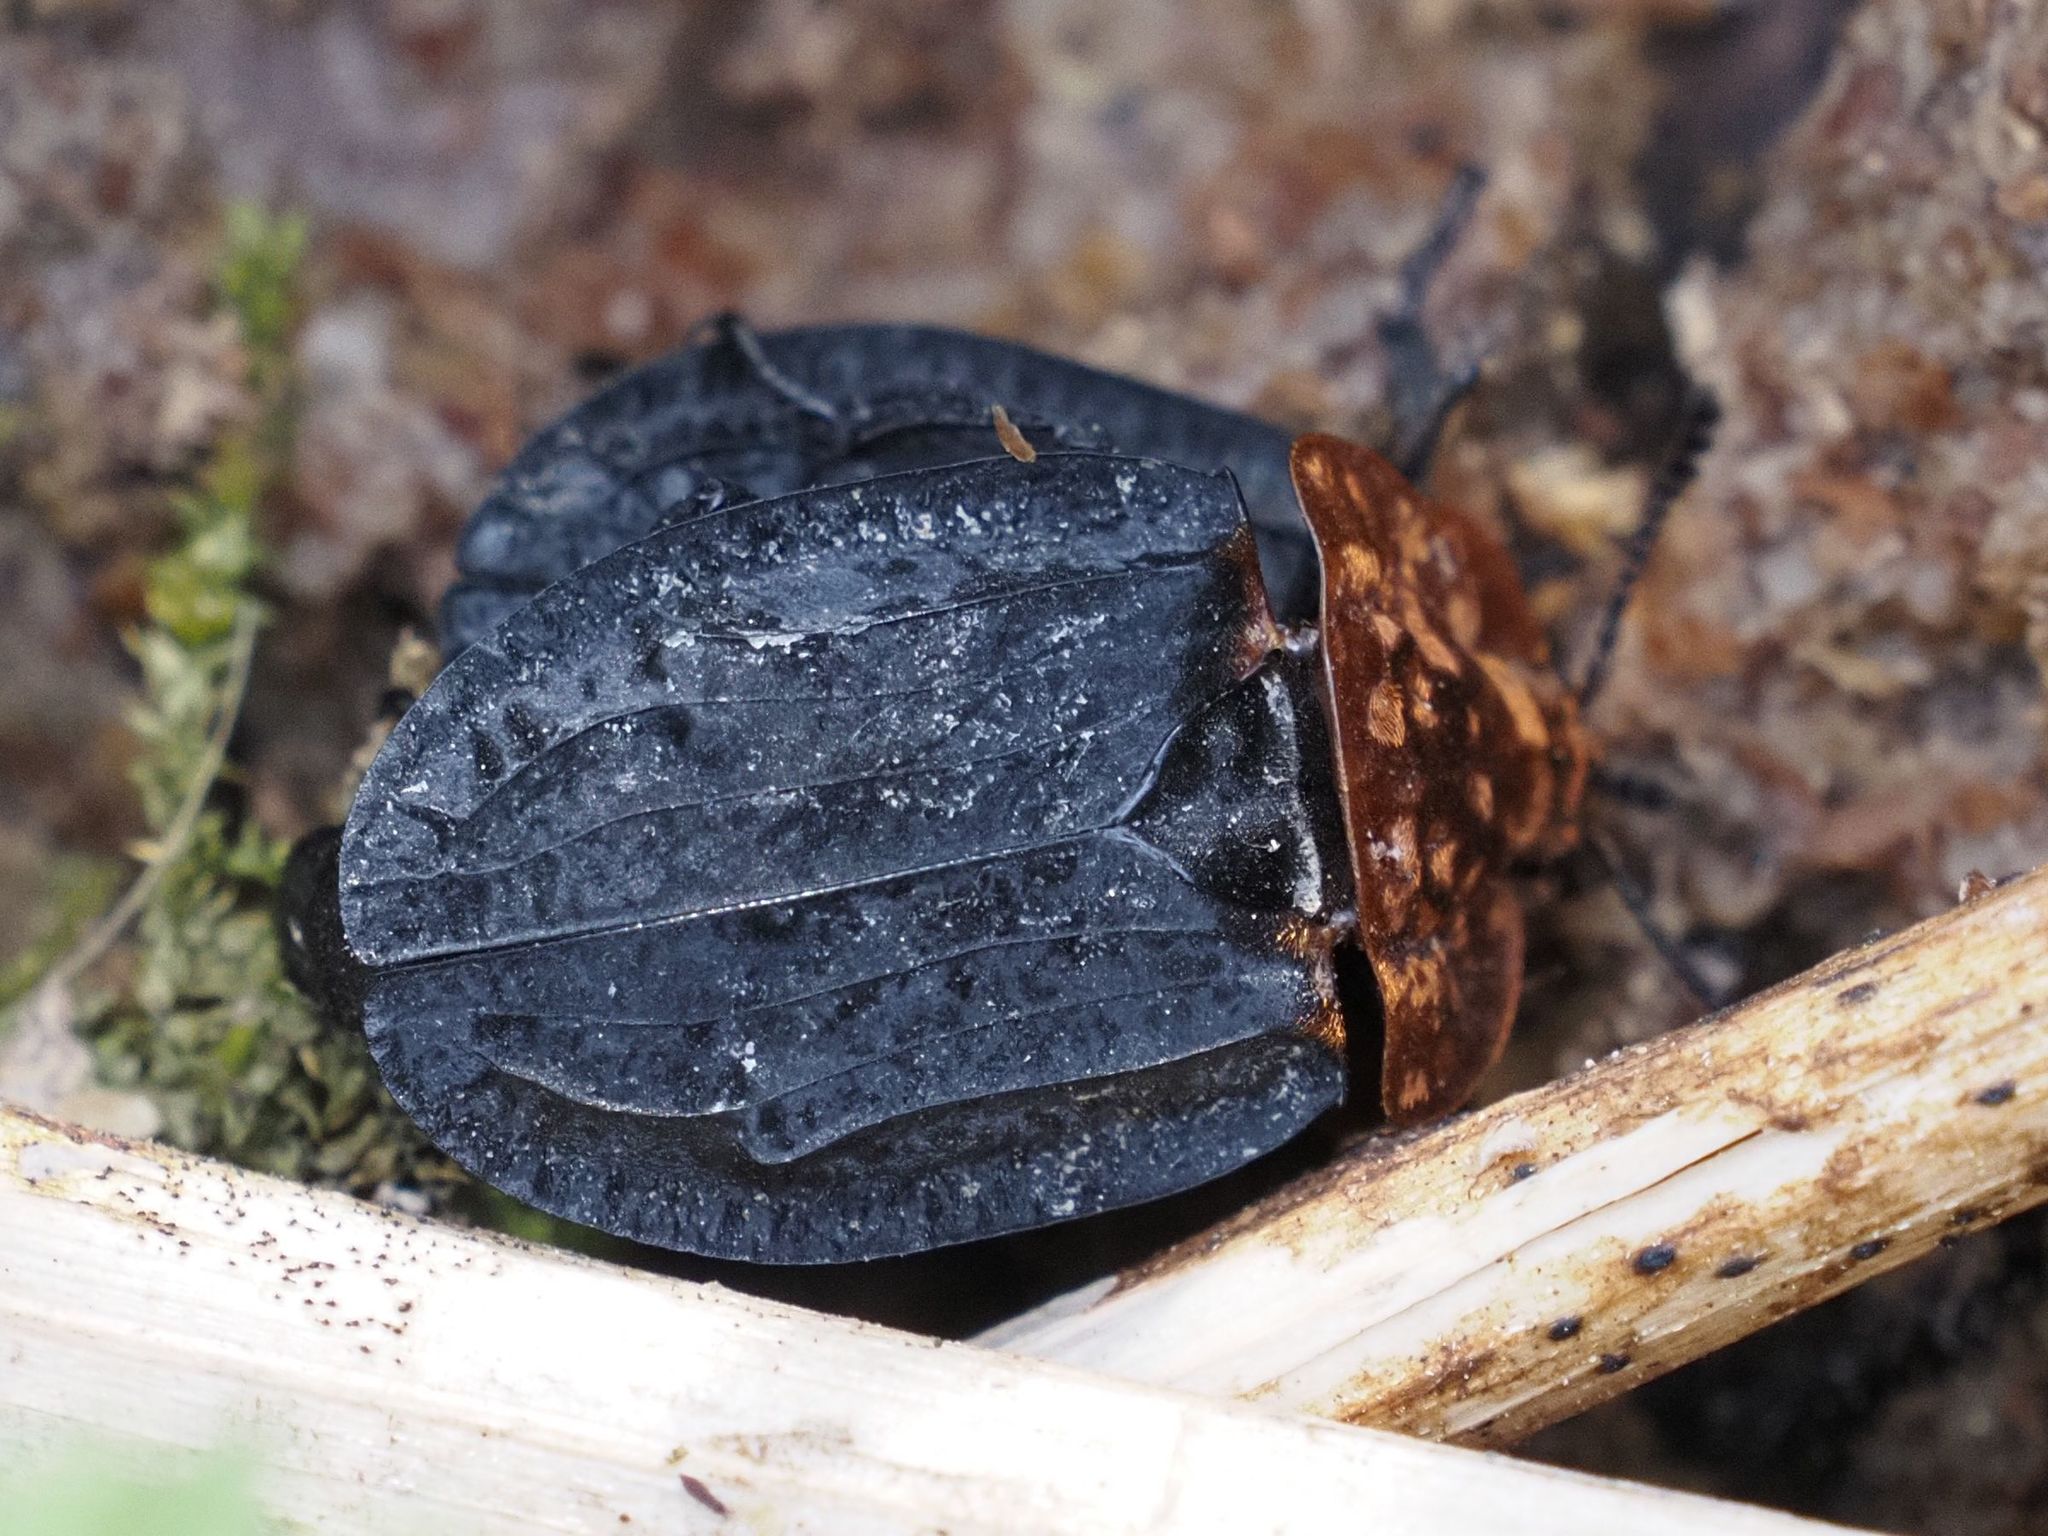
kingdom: Animalia
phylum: Arthropoda
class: Insecta
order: Coleoptera
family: Staphylinidae
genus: Oiceoptoma
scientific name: Oiceoptoma thoracicum
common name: Red-breasted carrion beetle
